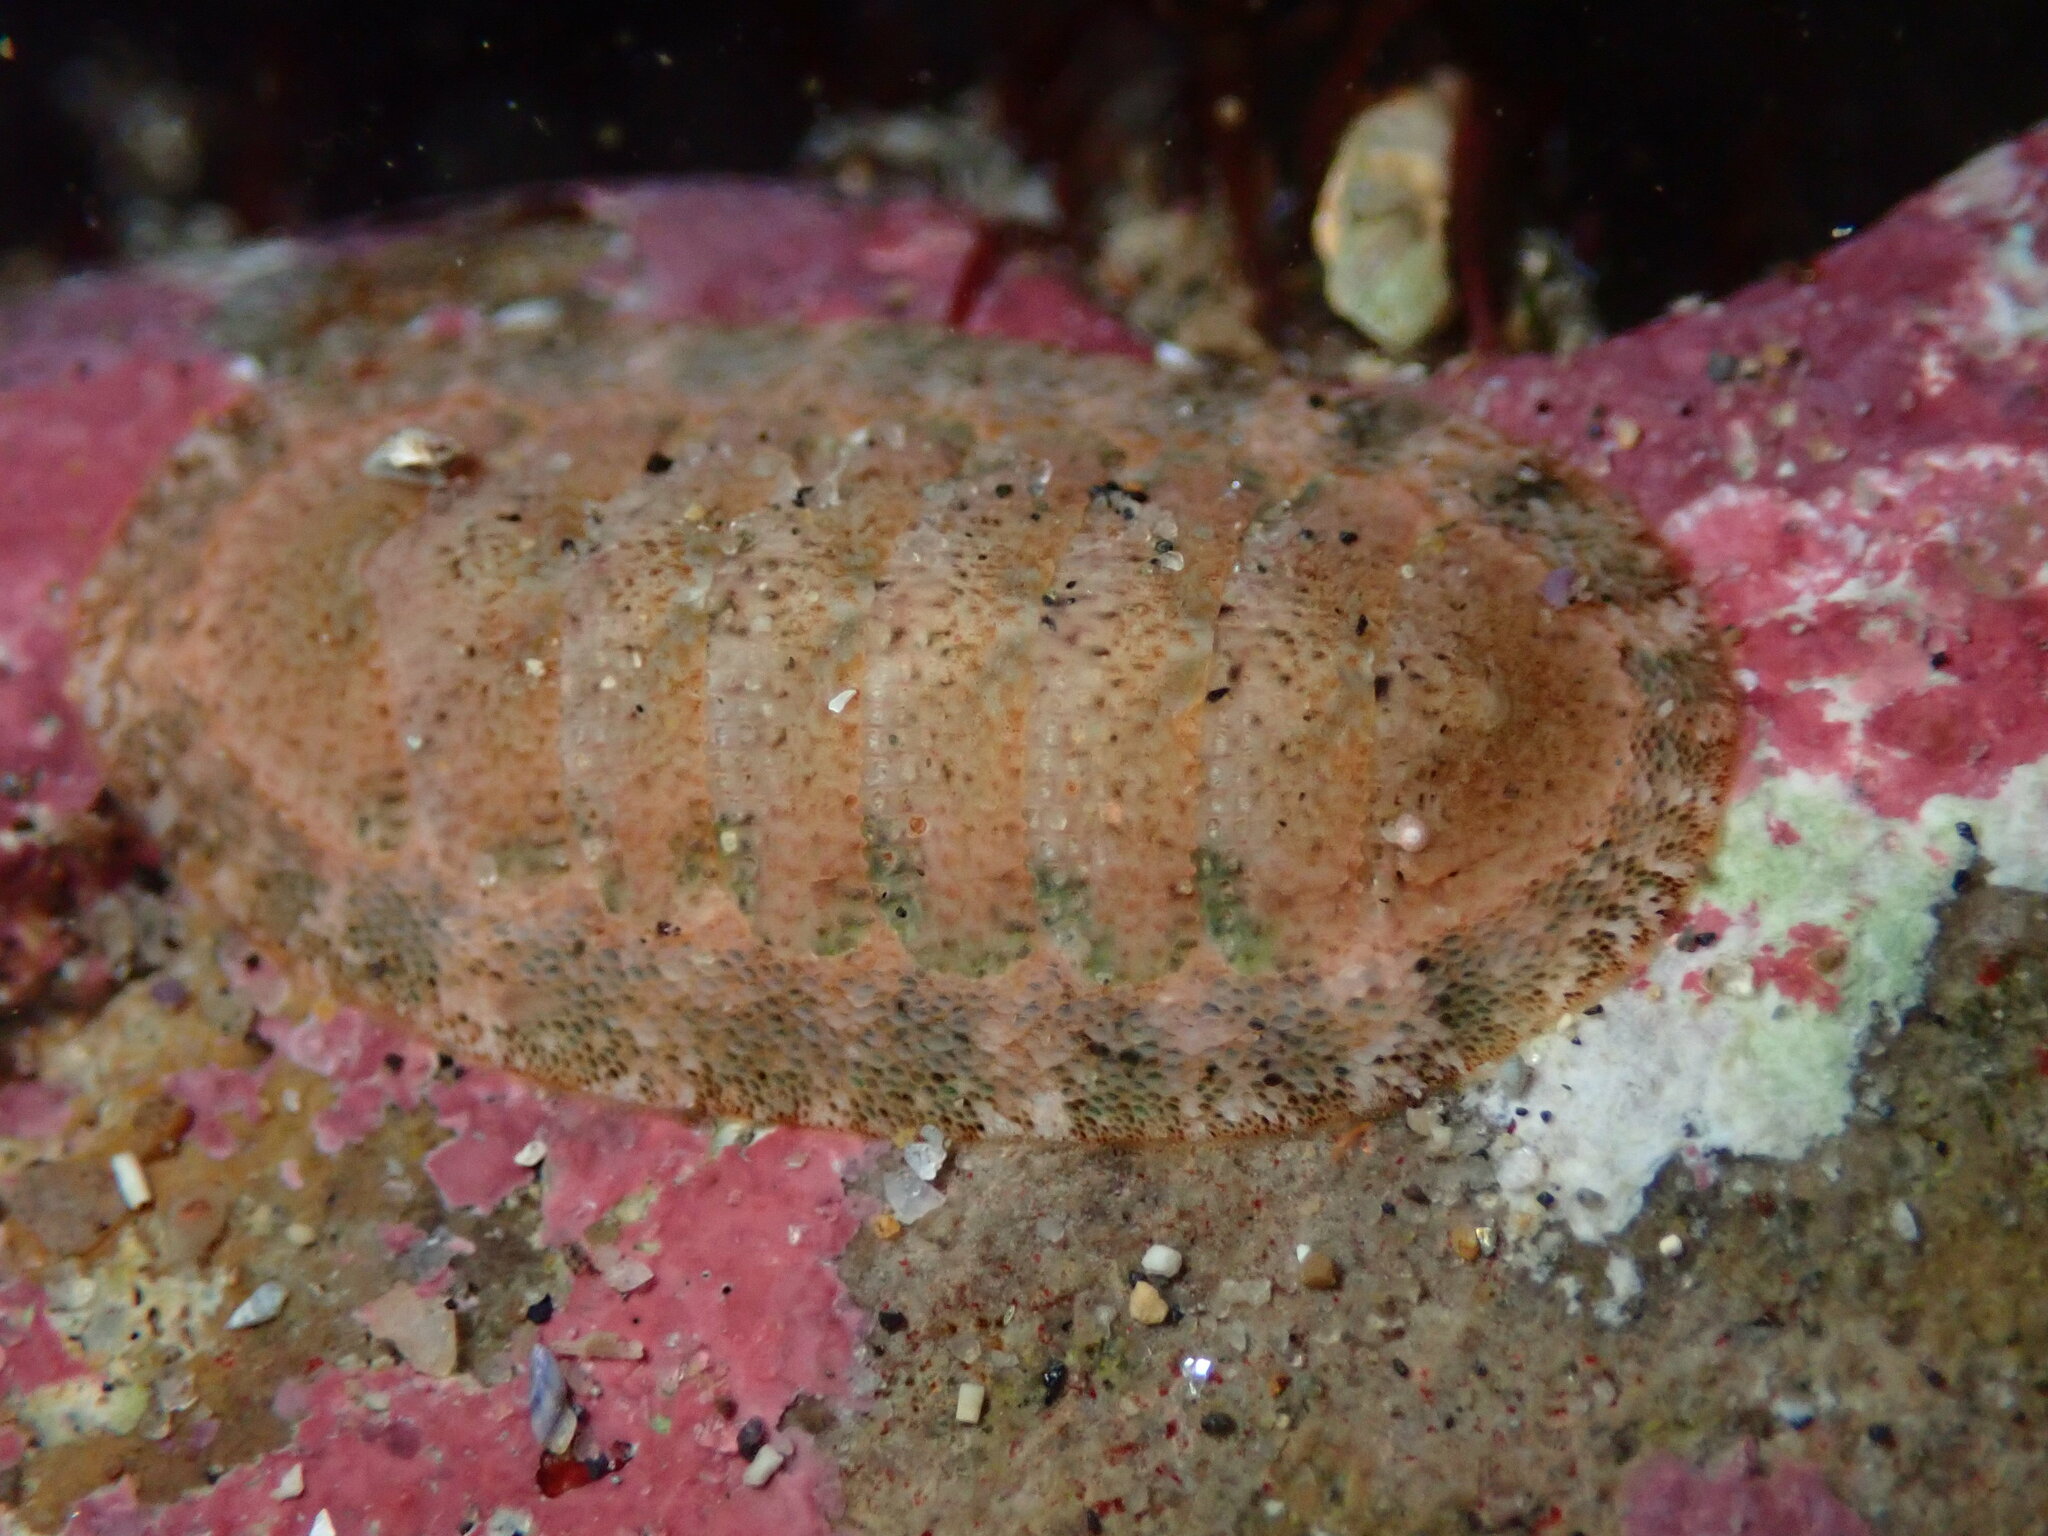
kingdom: Animalia
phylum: Mollusca
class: Polyplacophora
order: Chitonida
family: Ischnochitonidae
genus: Lepidozona
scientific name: Lepidozona pectinulata
